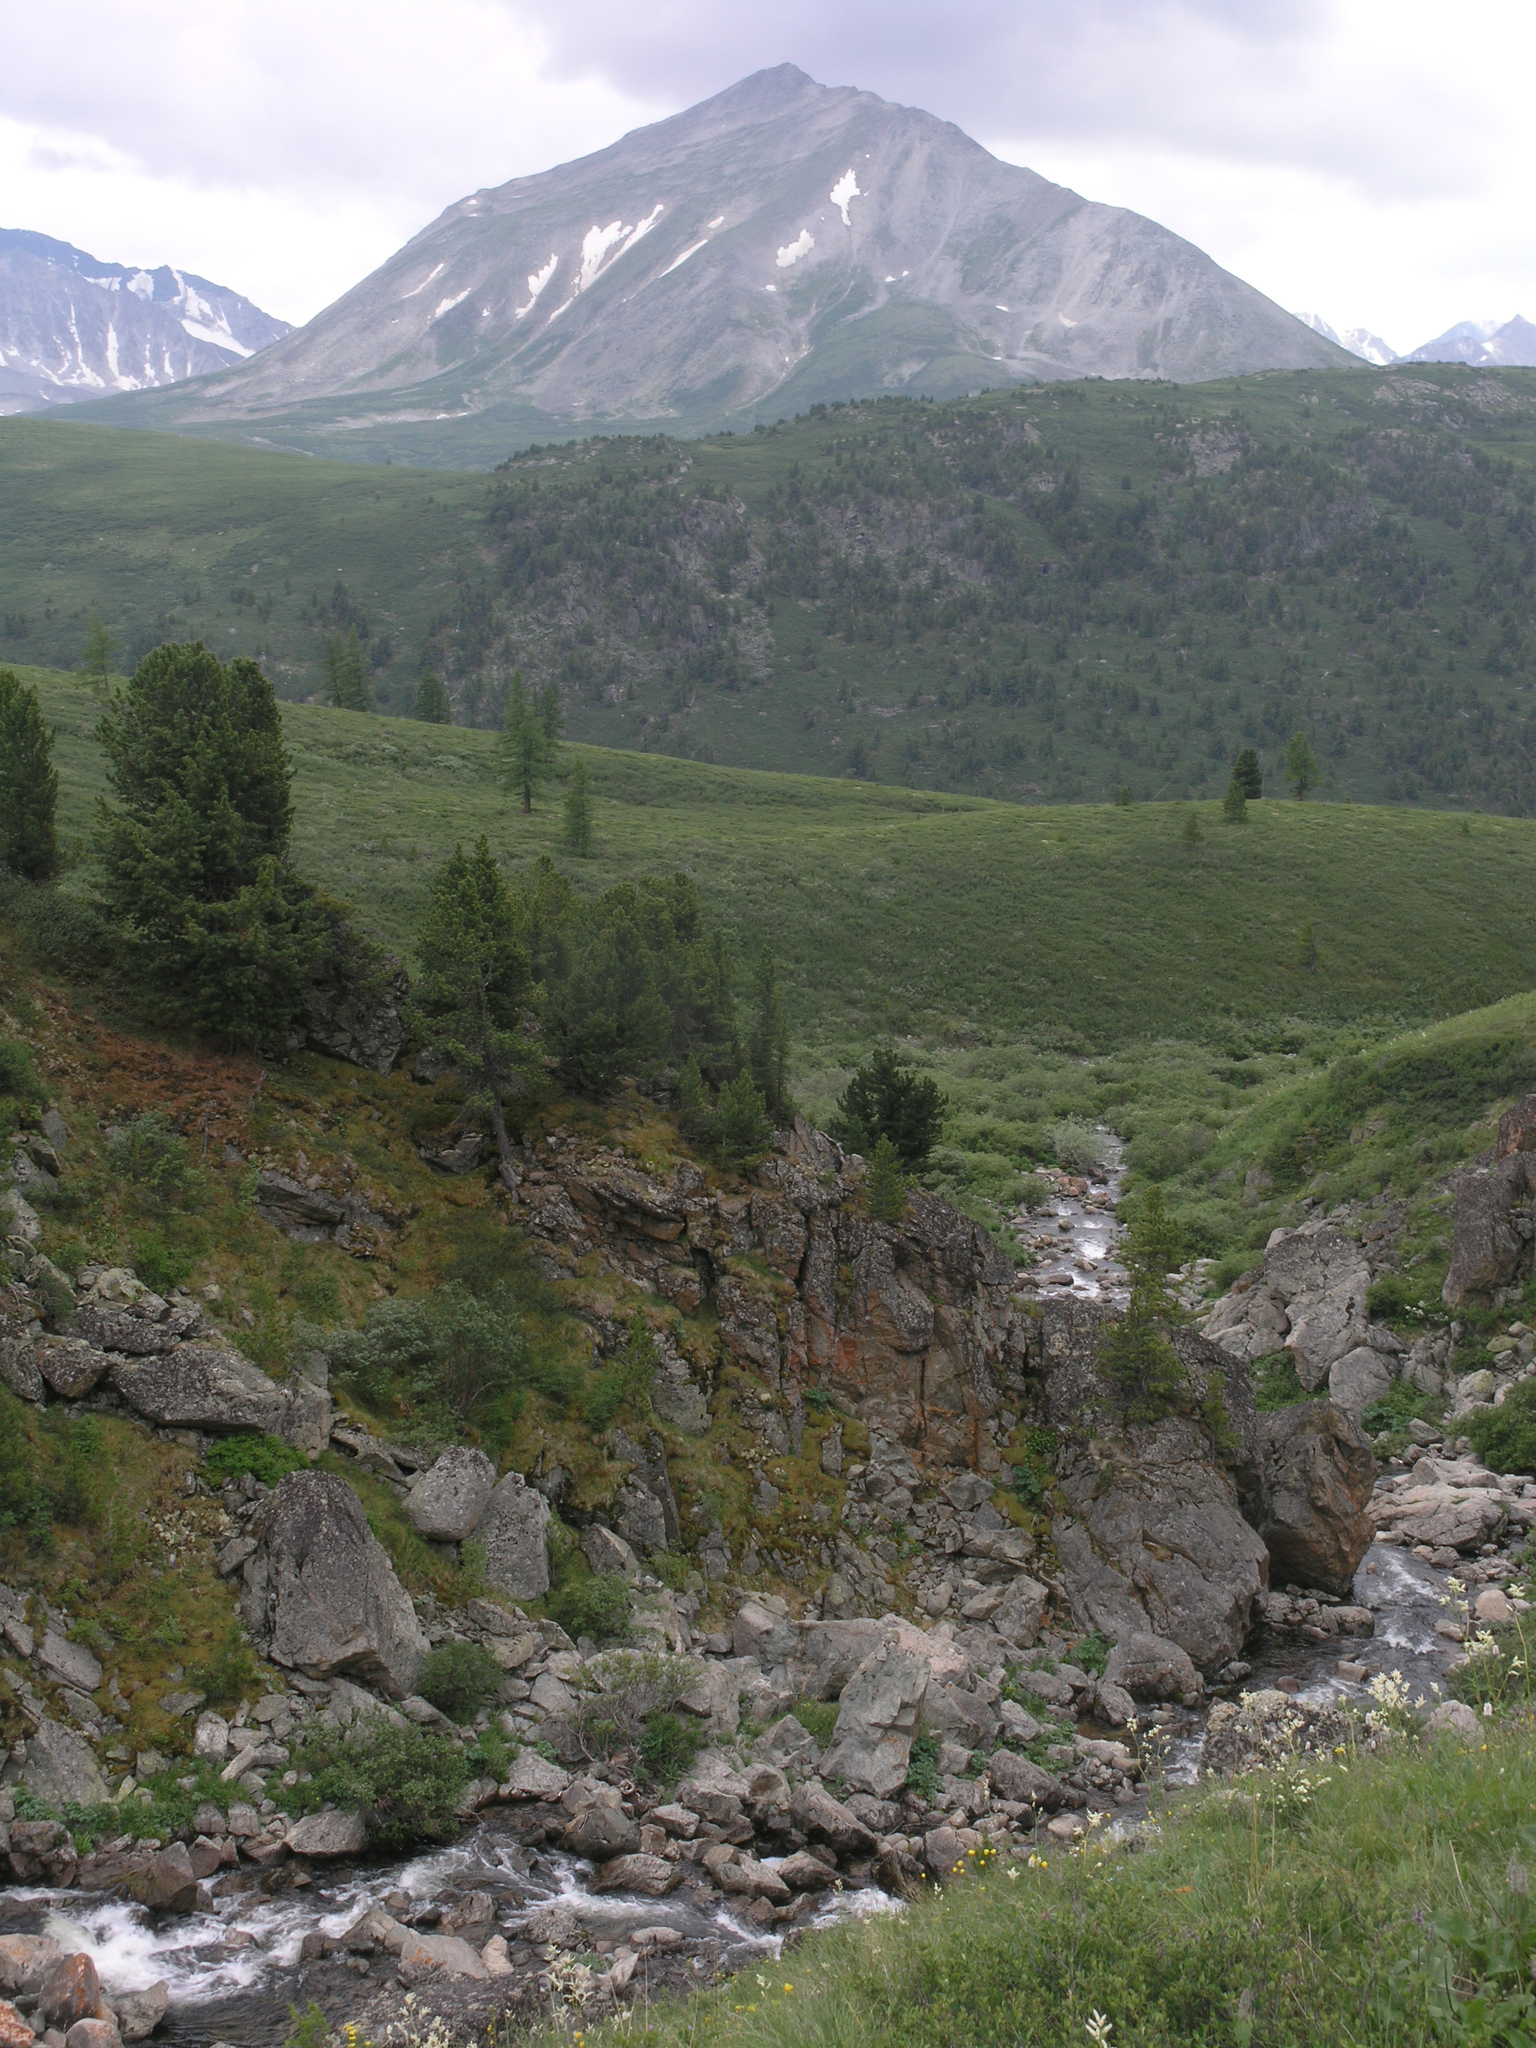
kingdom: Plantae
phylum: Tracheophyta
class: Pinopsida
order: Pinales
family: Pinaceae
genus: Pinus
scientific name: Pinus sibirica
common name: Siberian pine
